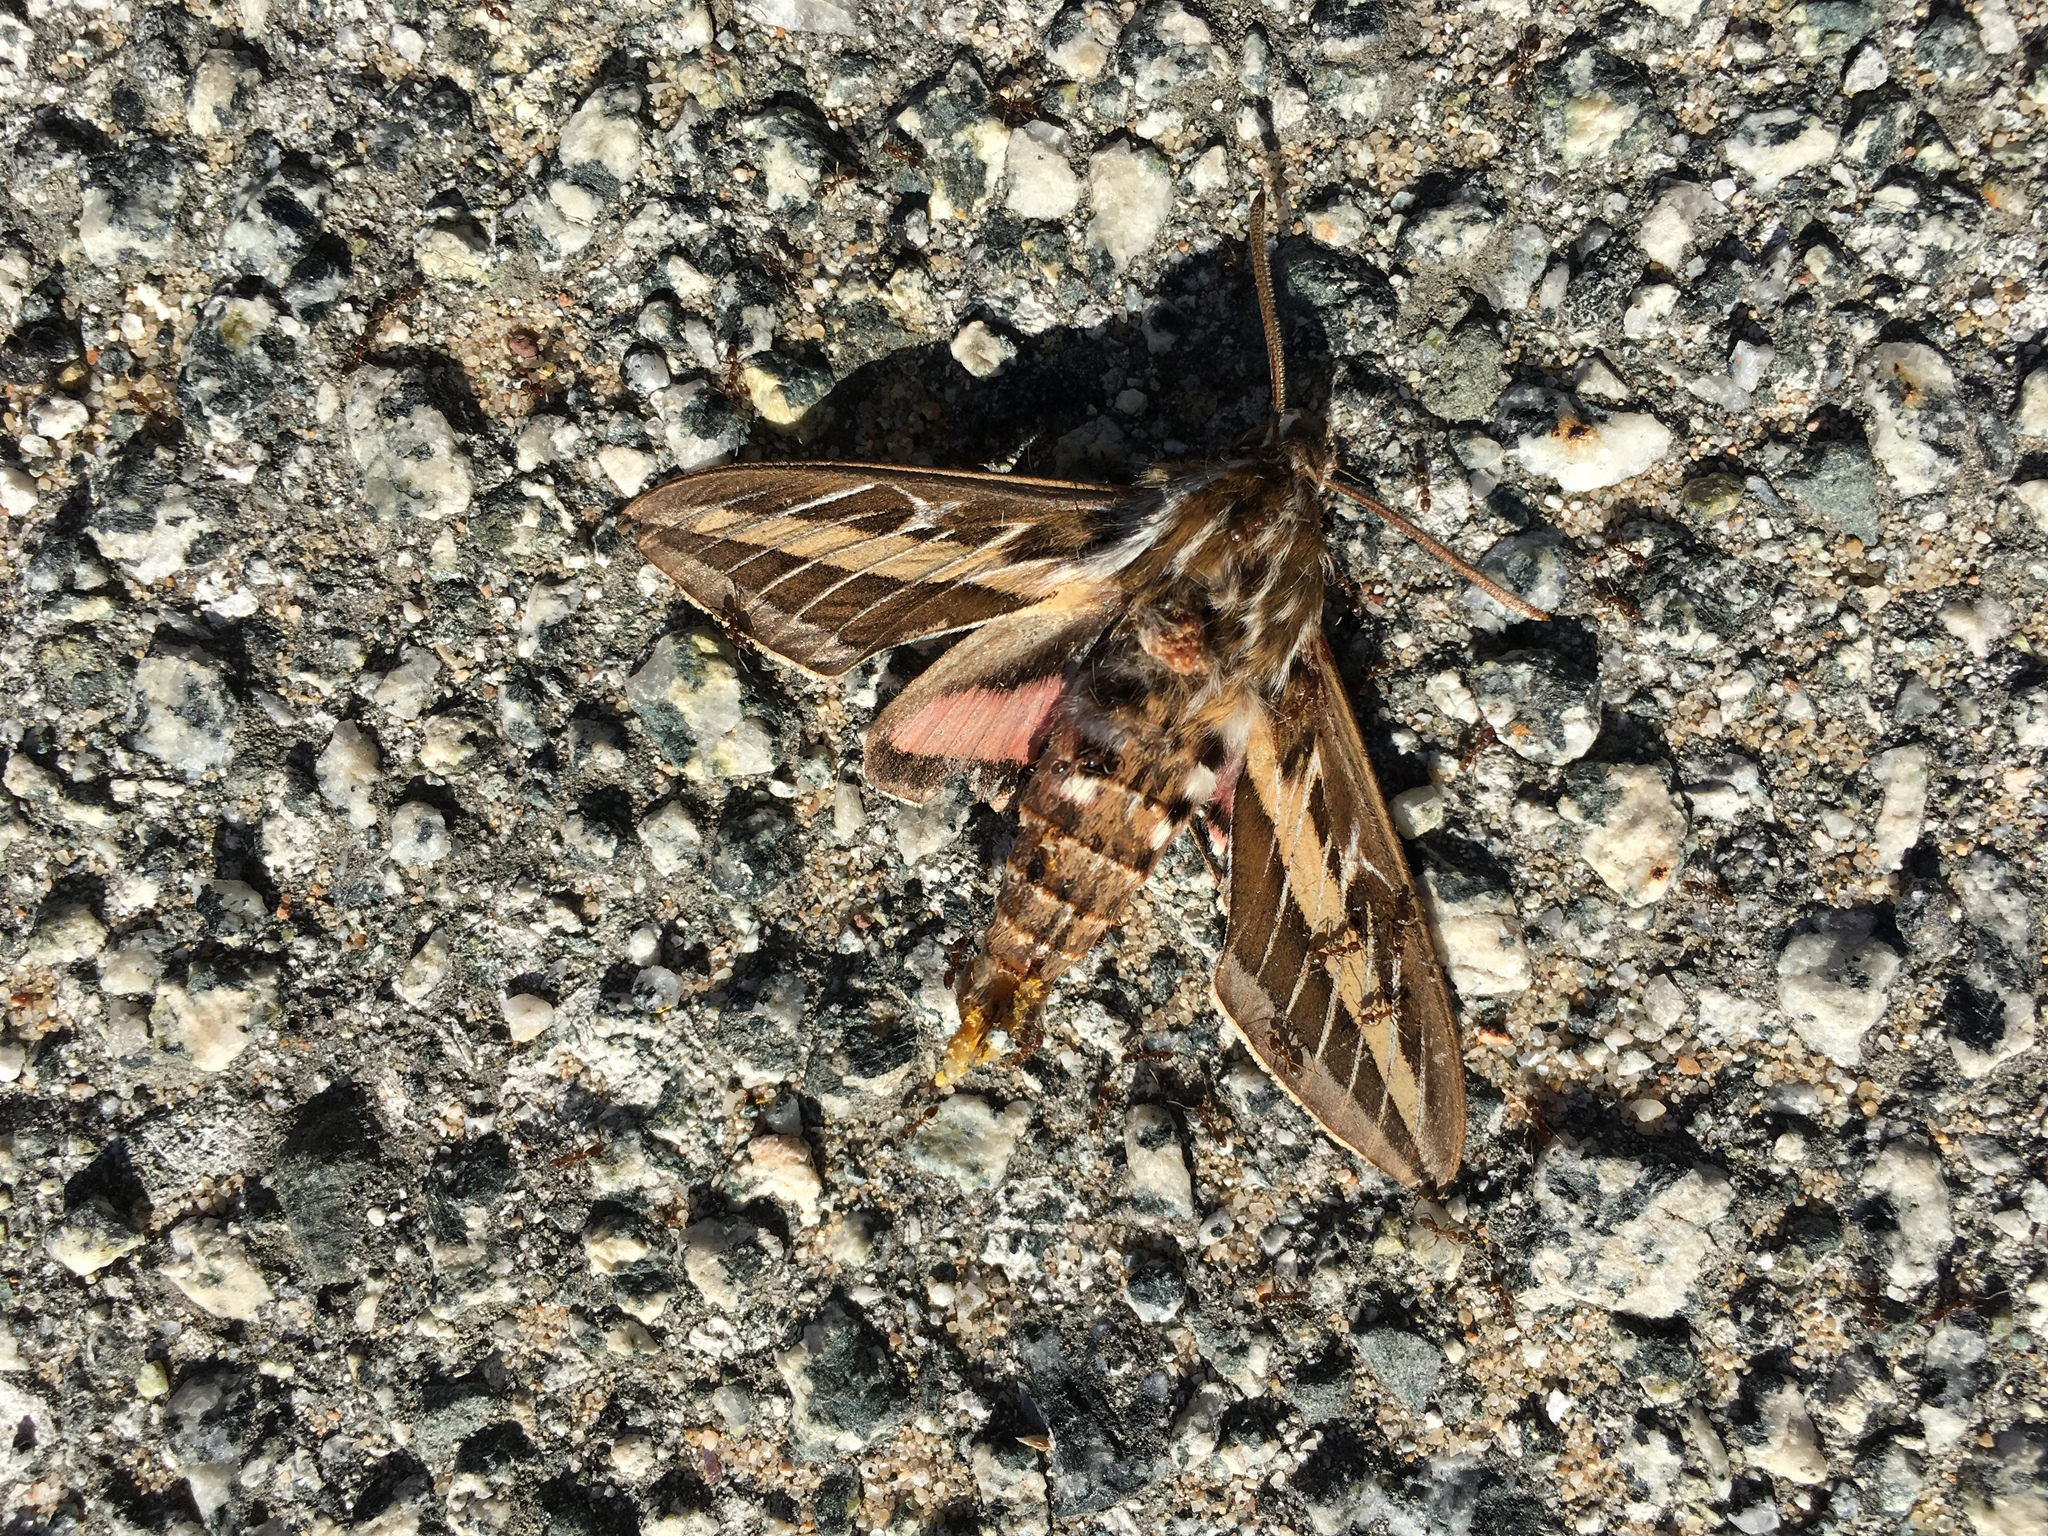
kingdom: Animalia
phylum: Arthropoda
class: Insecta
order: Lepidoptera
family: Sphingidae
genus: Hyles
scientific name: Hyles lineata
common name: White-lined sphinx
